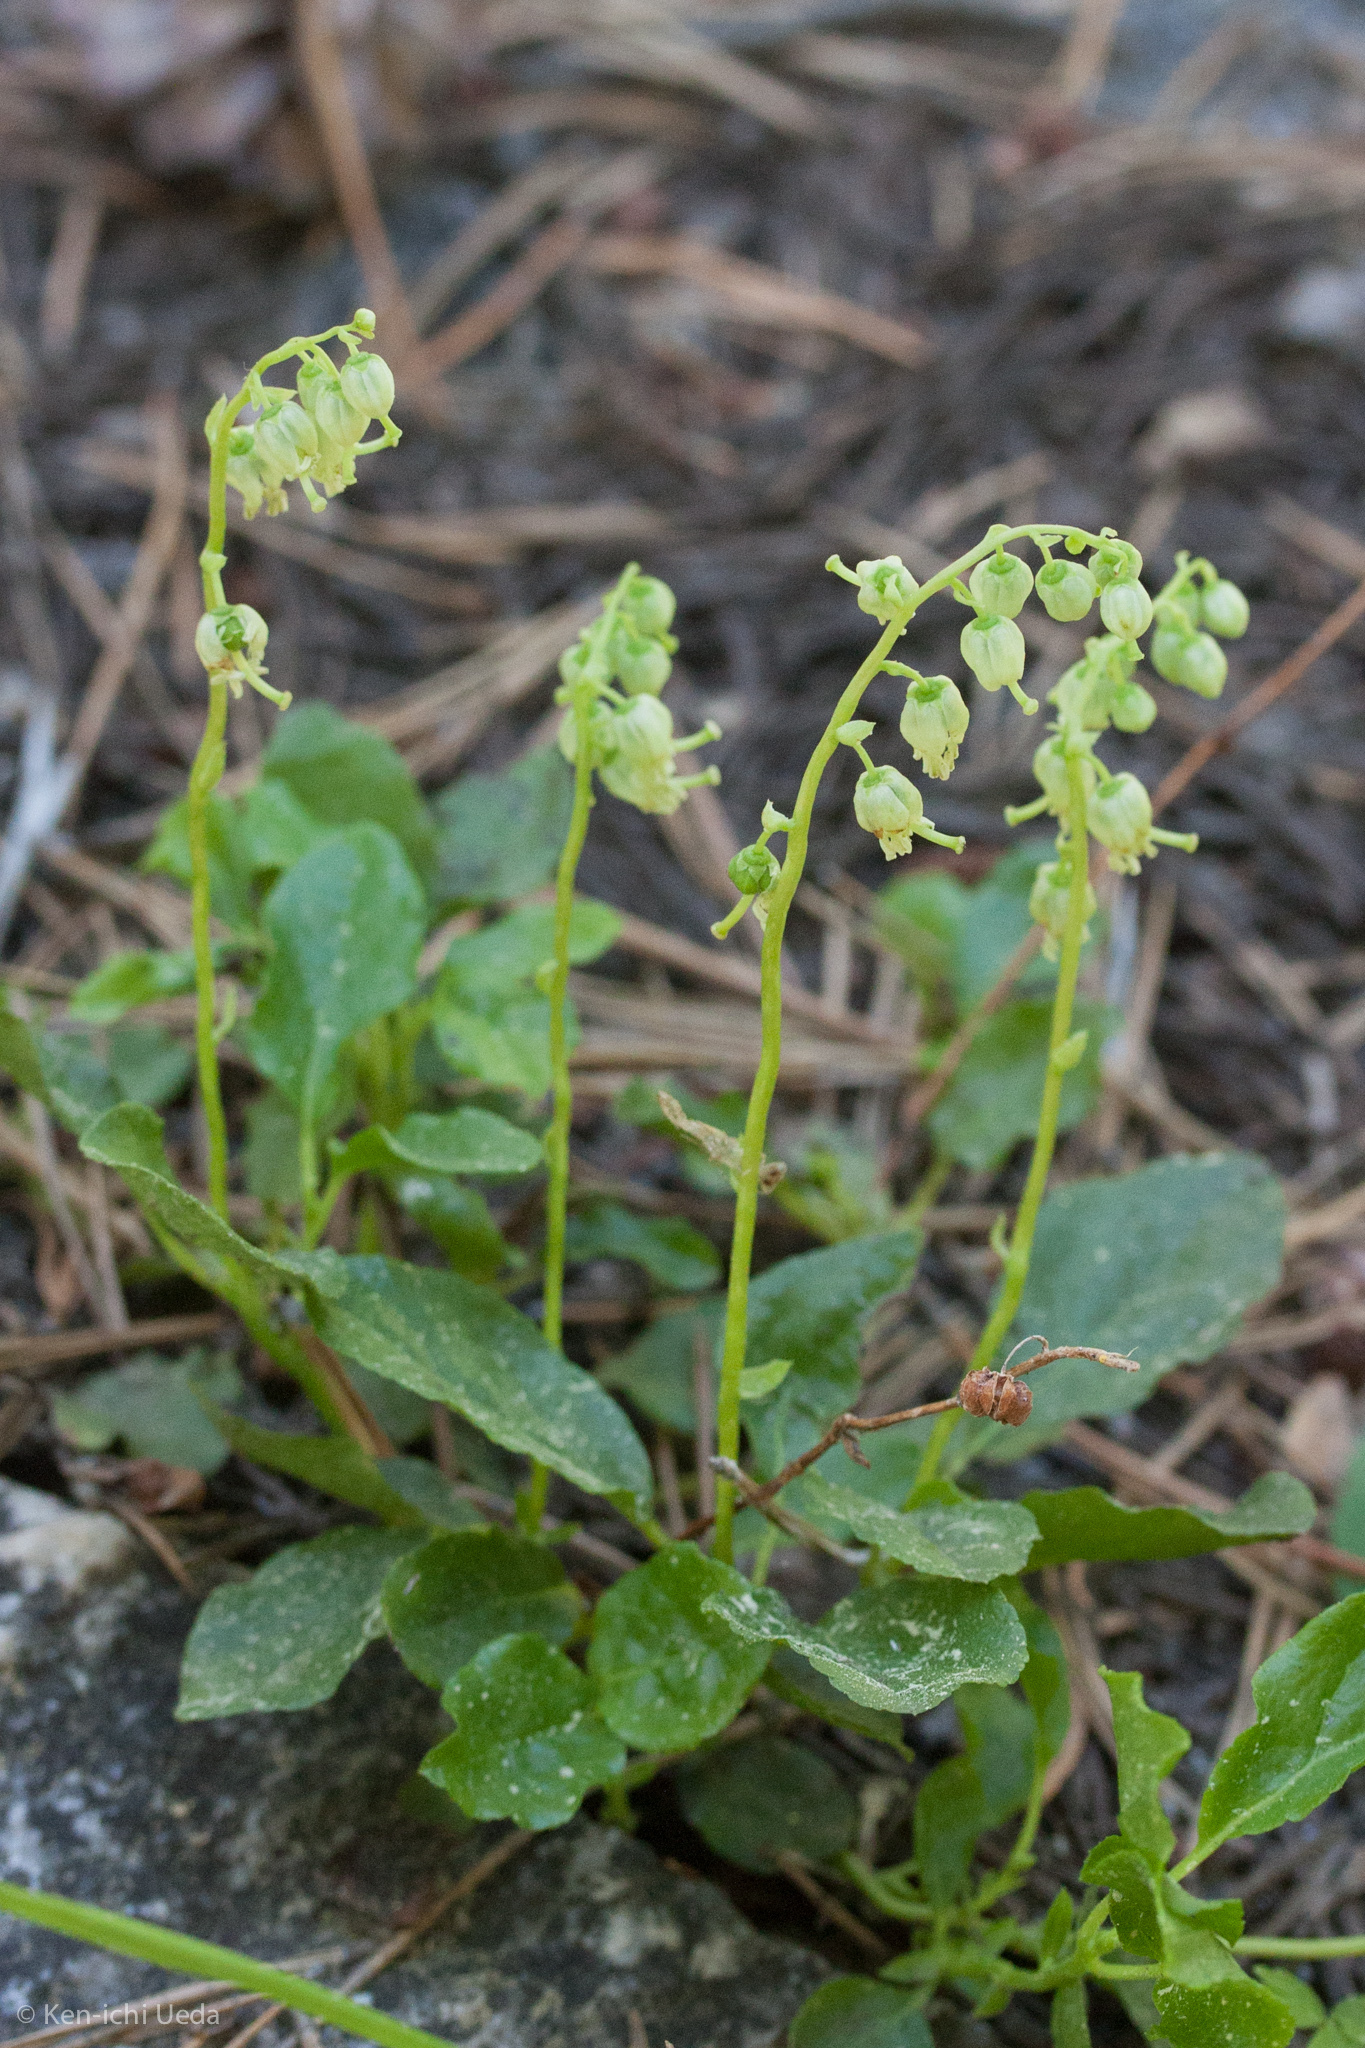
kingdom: Plantae
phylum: Tracheophyta
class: Magnoliopsida
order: Ericales
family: Ericaceae
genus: Orthilia
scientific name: Orthilia secunda
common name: One-sided orthilia
